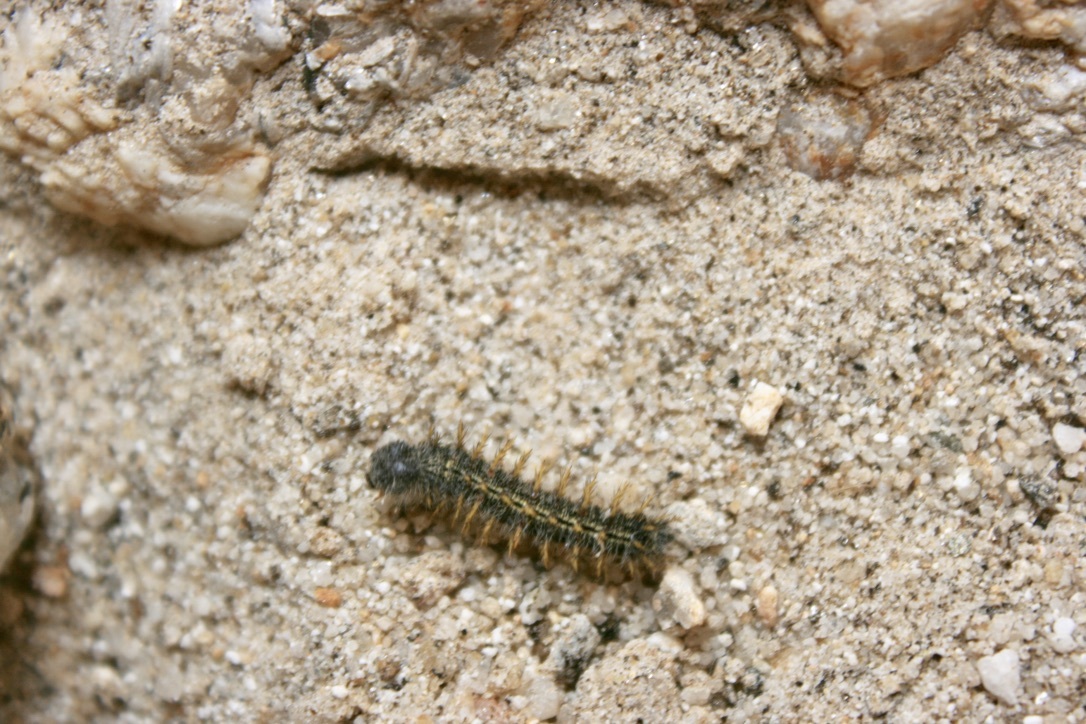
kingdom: Animalia
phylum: Arthropoda
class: Insecta
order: Lepidoptera
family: Nymphalidae
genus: Vanessa
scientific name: Vanessa cardui
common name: Painted lady
